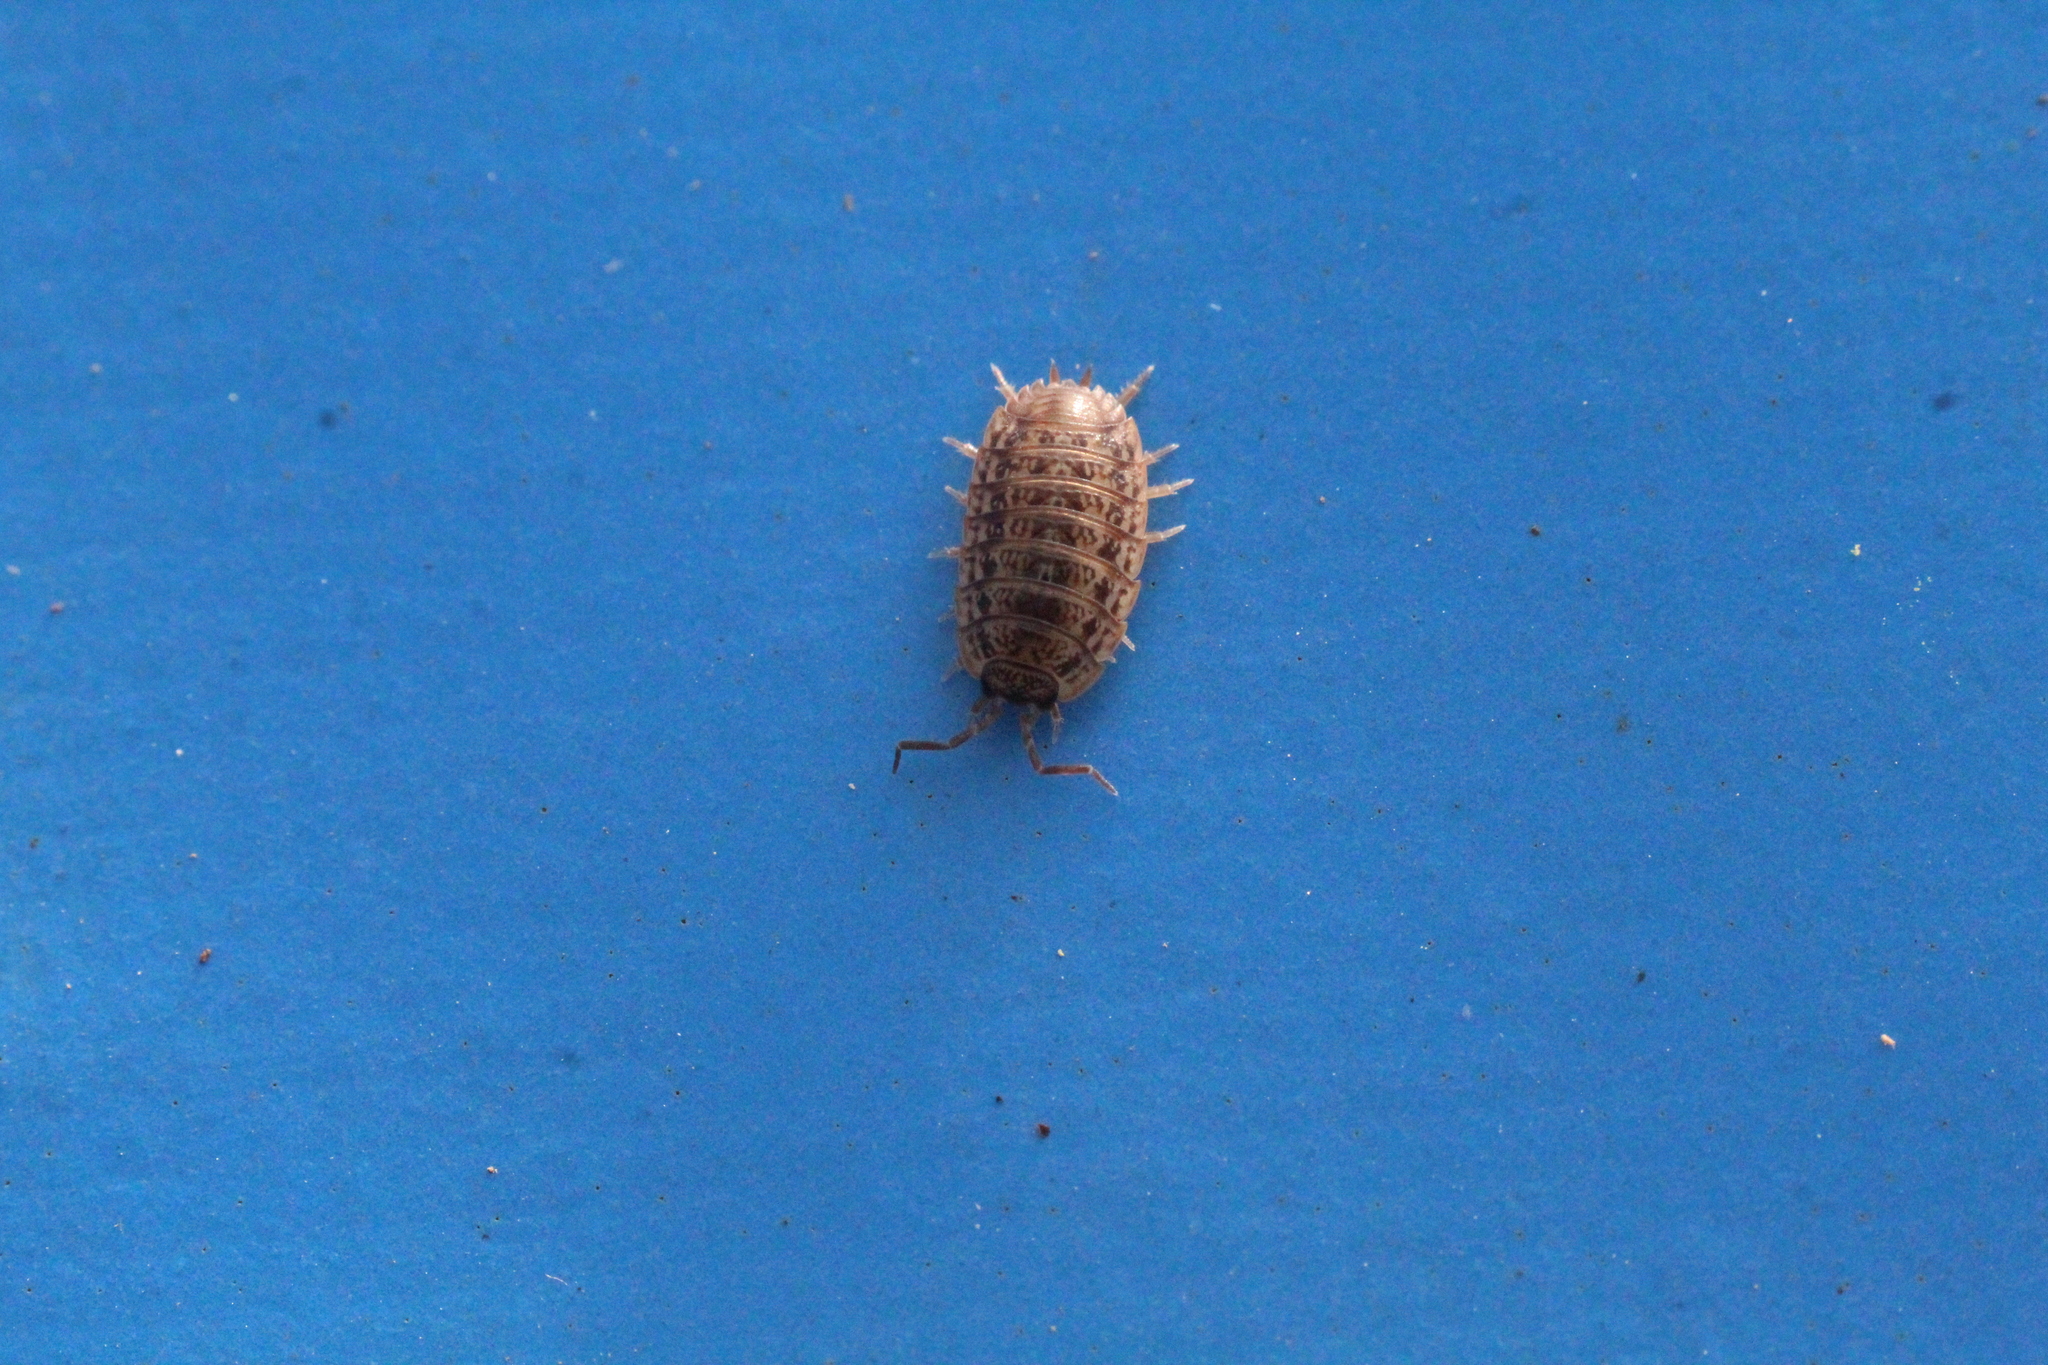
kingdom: Animalia
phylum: Arthropoda
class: Malacostraca
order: Isopoda
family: Trachelipodidae
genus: Trachelipus
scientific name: Trachelipus razzautii
